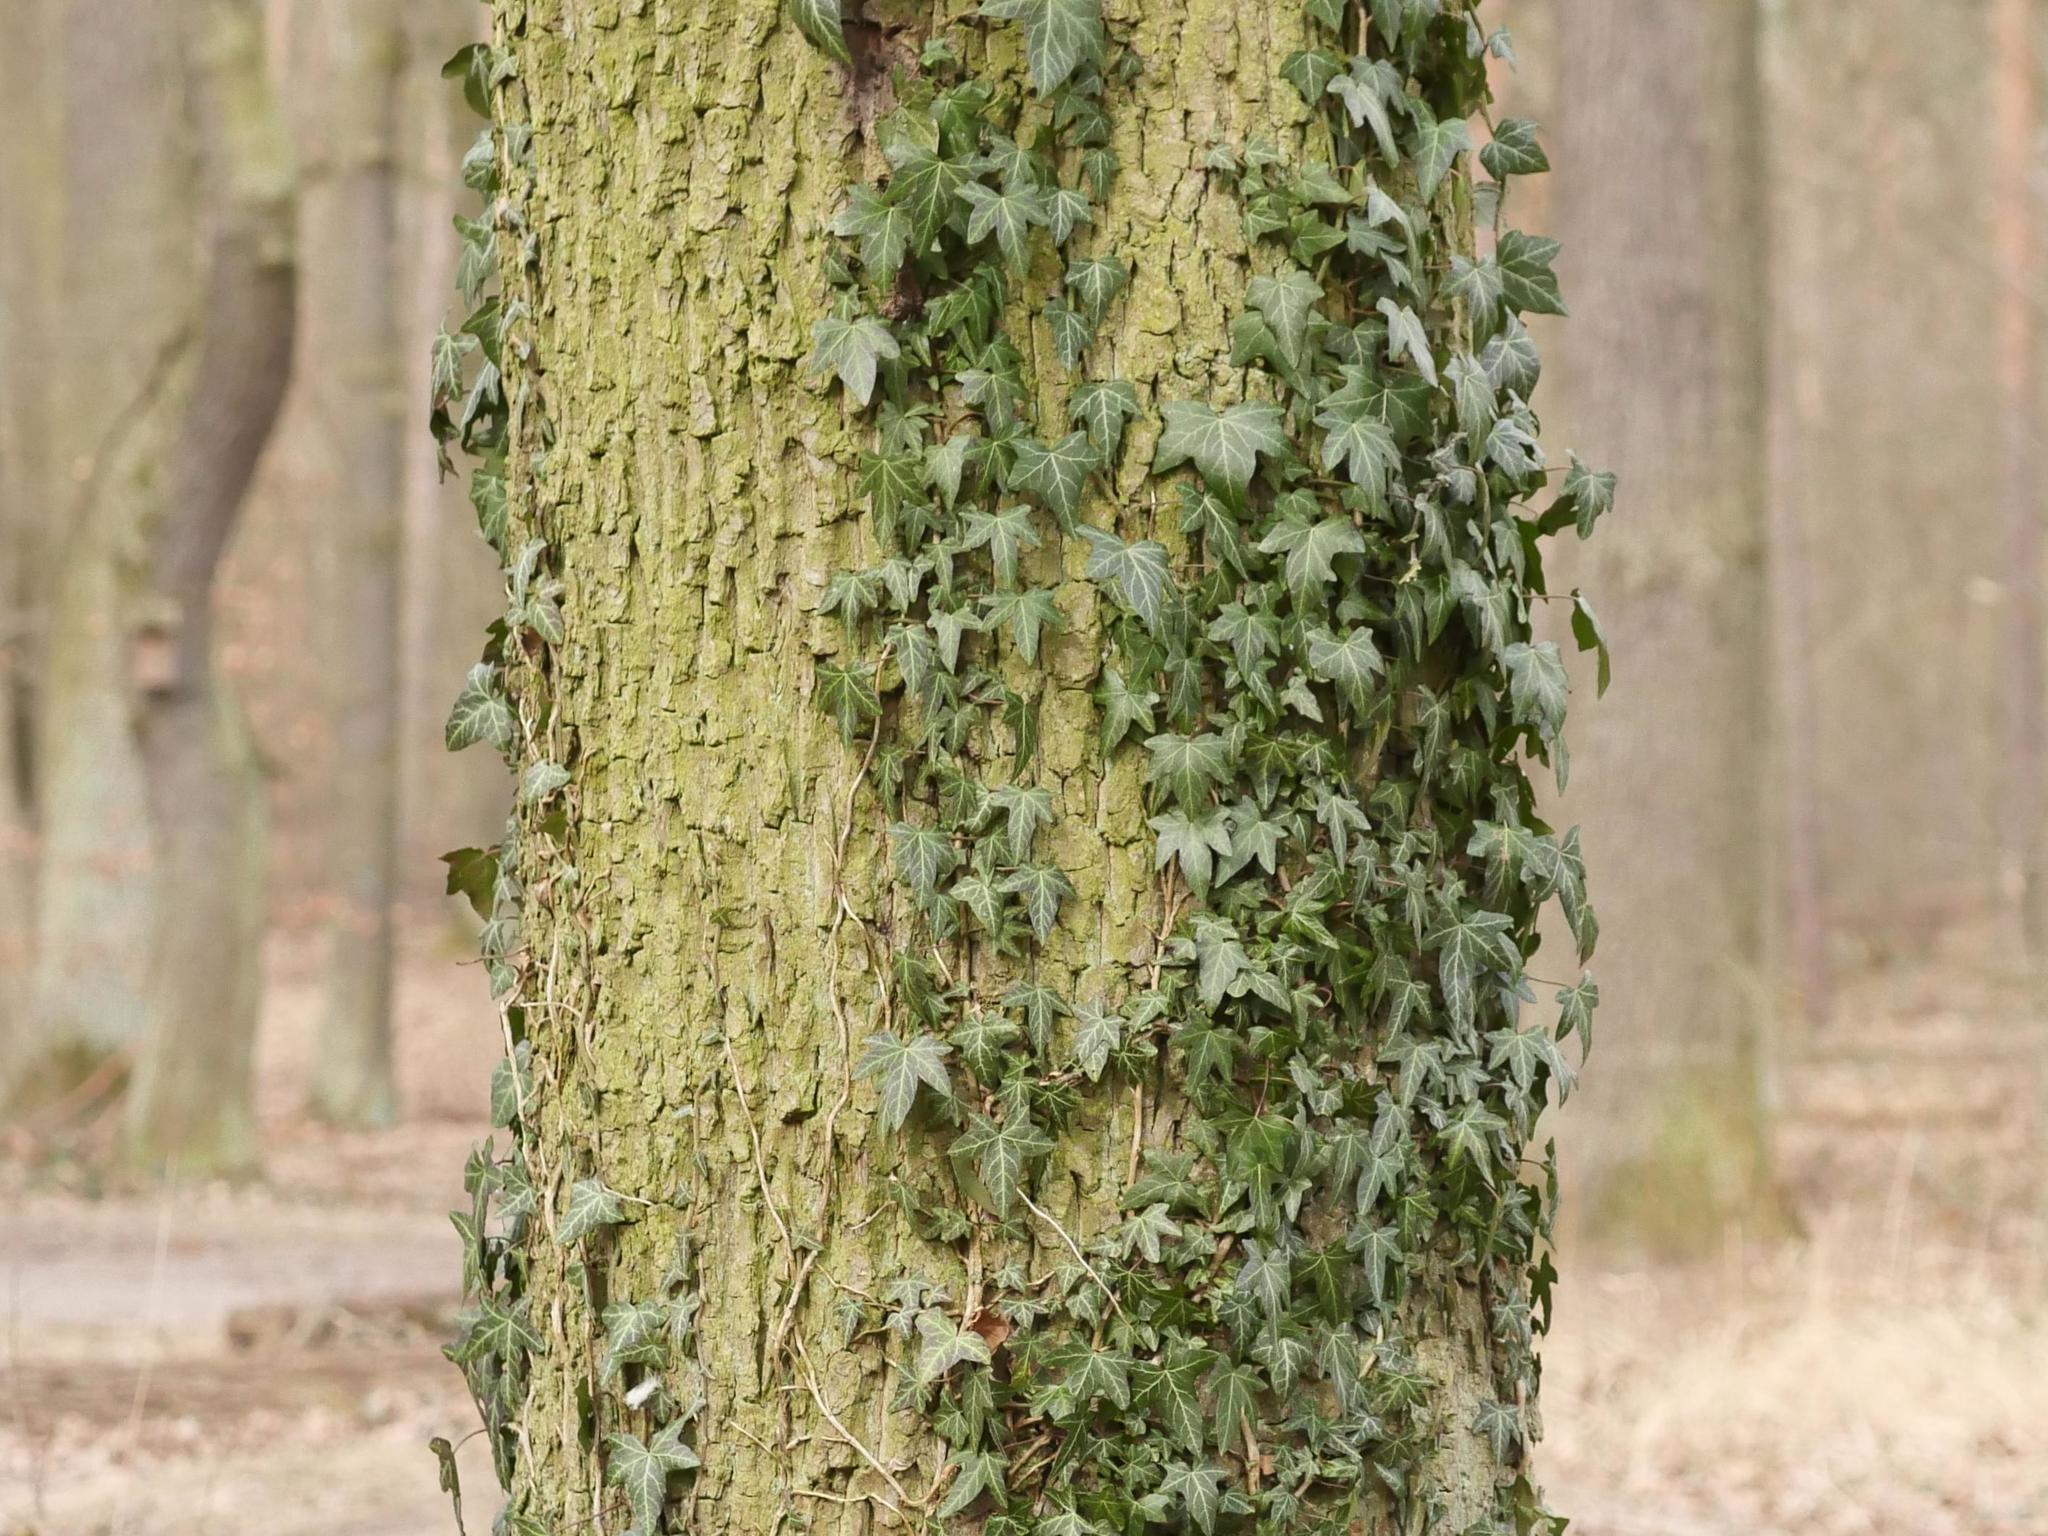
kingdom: Plantae
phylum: Tracheophyta
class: Magnoliopsida
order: Apiales
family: Araliaceae
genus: Hedera
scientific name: Hedera helix
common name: Ivy
